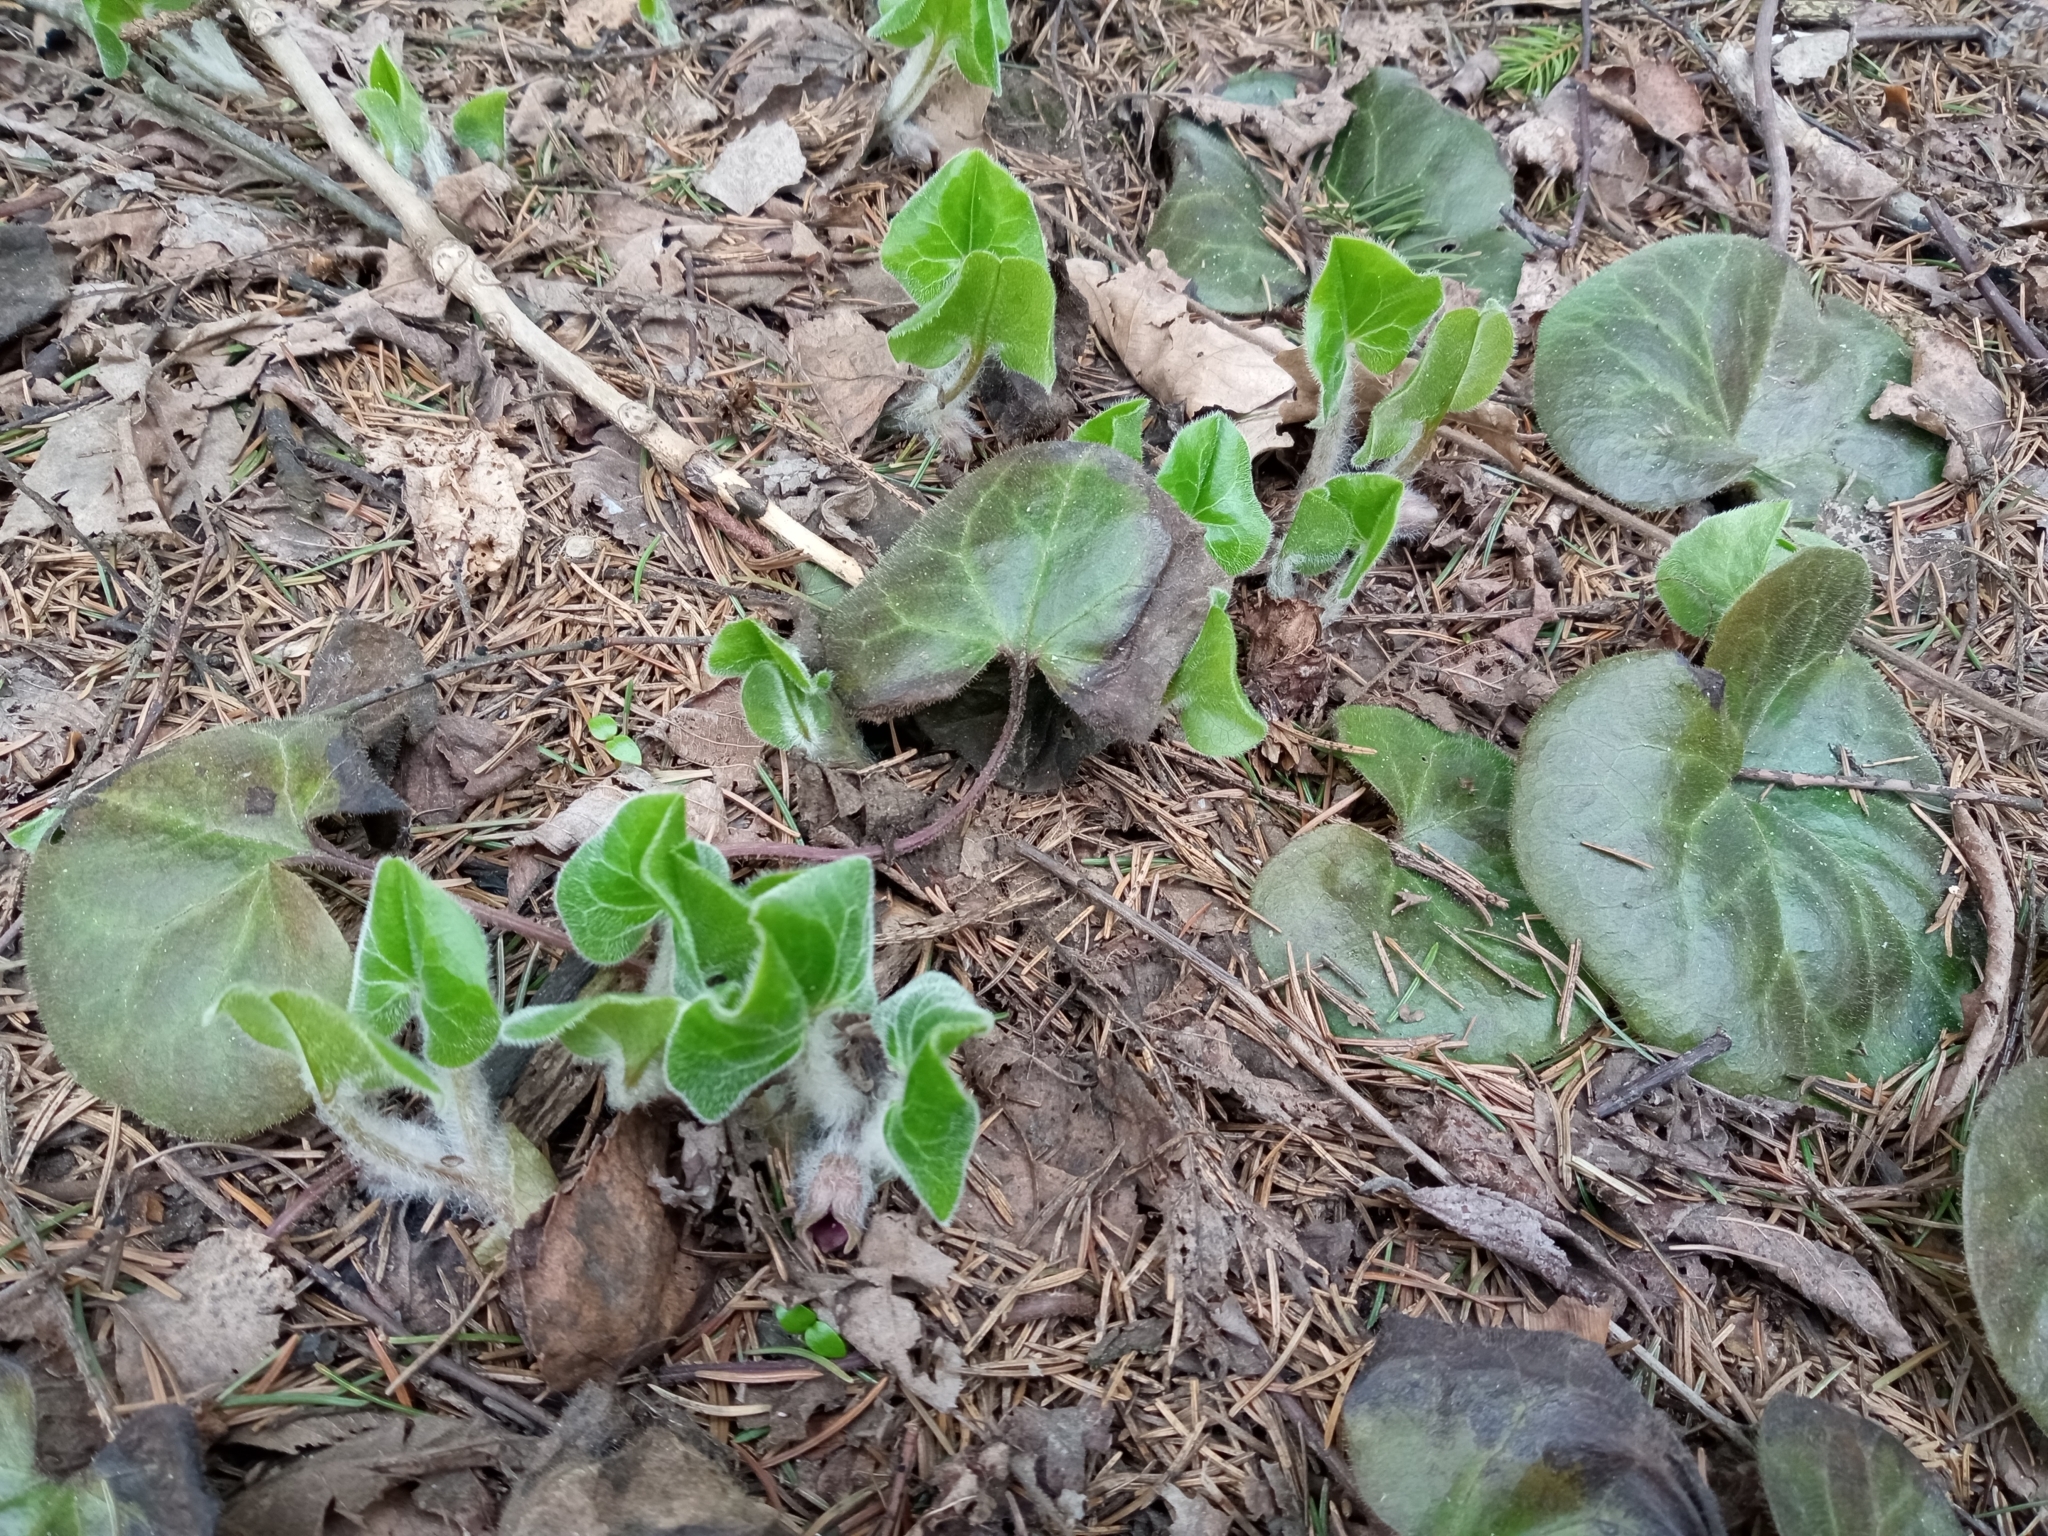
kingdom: Plantae
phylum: Tracheophyta
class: Magnoliopsida
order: Piperales
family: Aristolochiaceae
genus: Asarum
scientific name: Asarum europaeum
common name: Asarabacca
